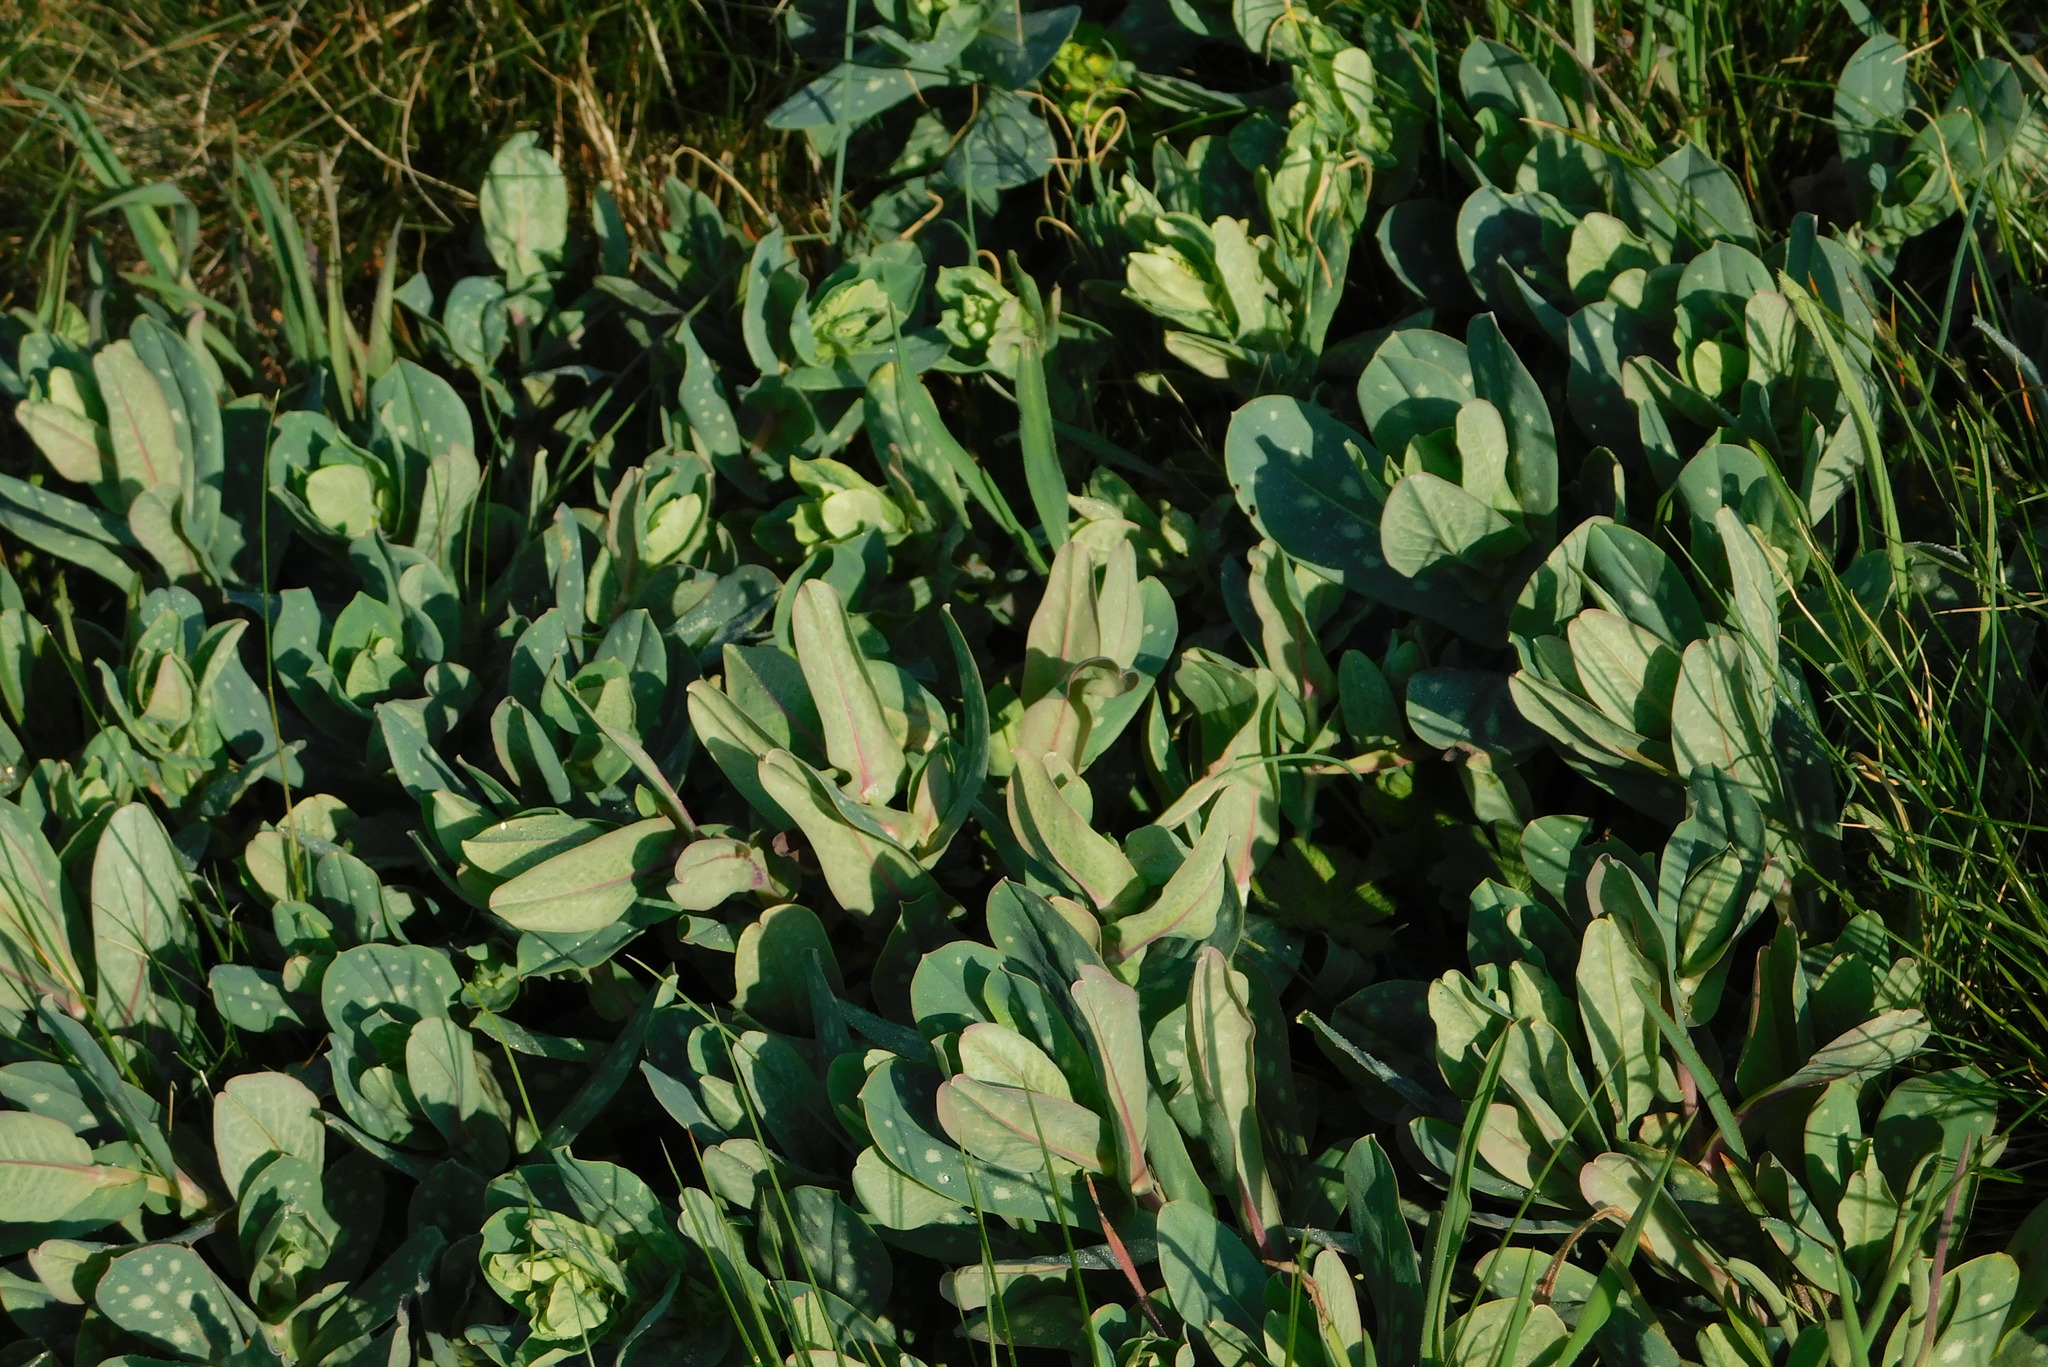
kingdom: Plantae
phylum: Tracheophyta
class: Magnoliopsida
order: Boraginales
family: Boraginaceae
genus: Cerinthe
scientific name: Cerinthe minor
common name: Lesser honeywort
